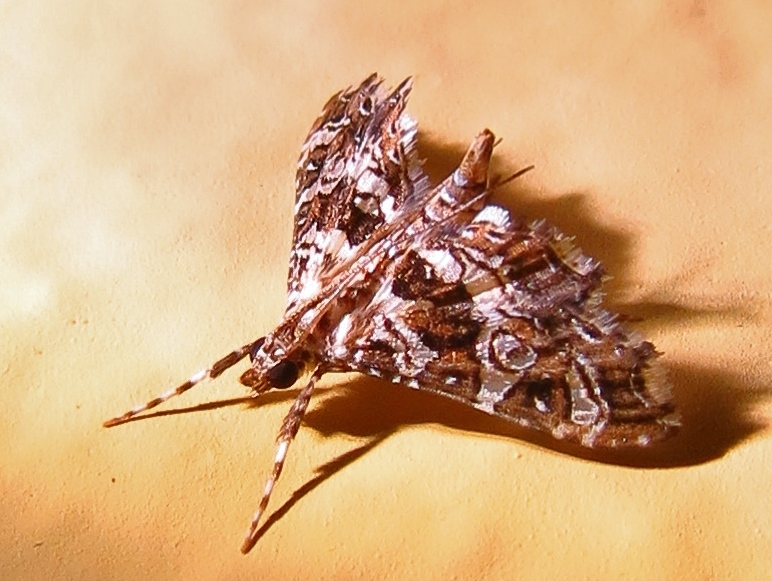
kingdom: Animalia
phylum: Arthropoda
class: Insecta
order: Lepidoptera
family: Crambidae
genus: Sisyracera
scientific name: Sisyracera inabsconsalis
